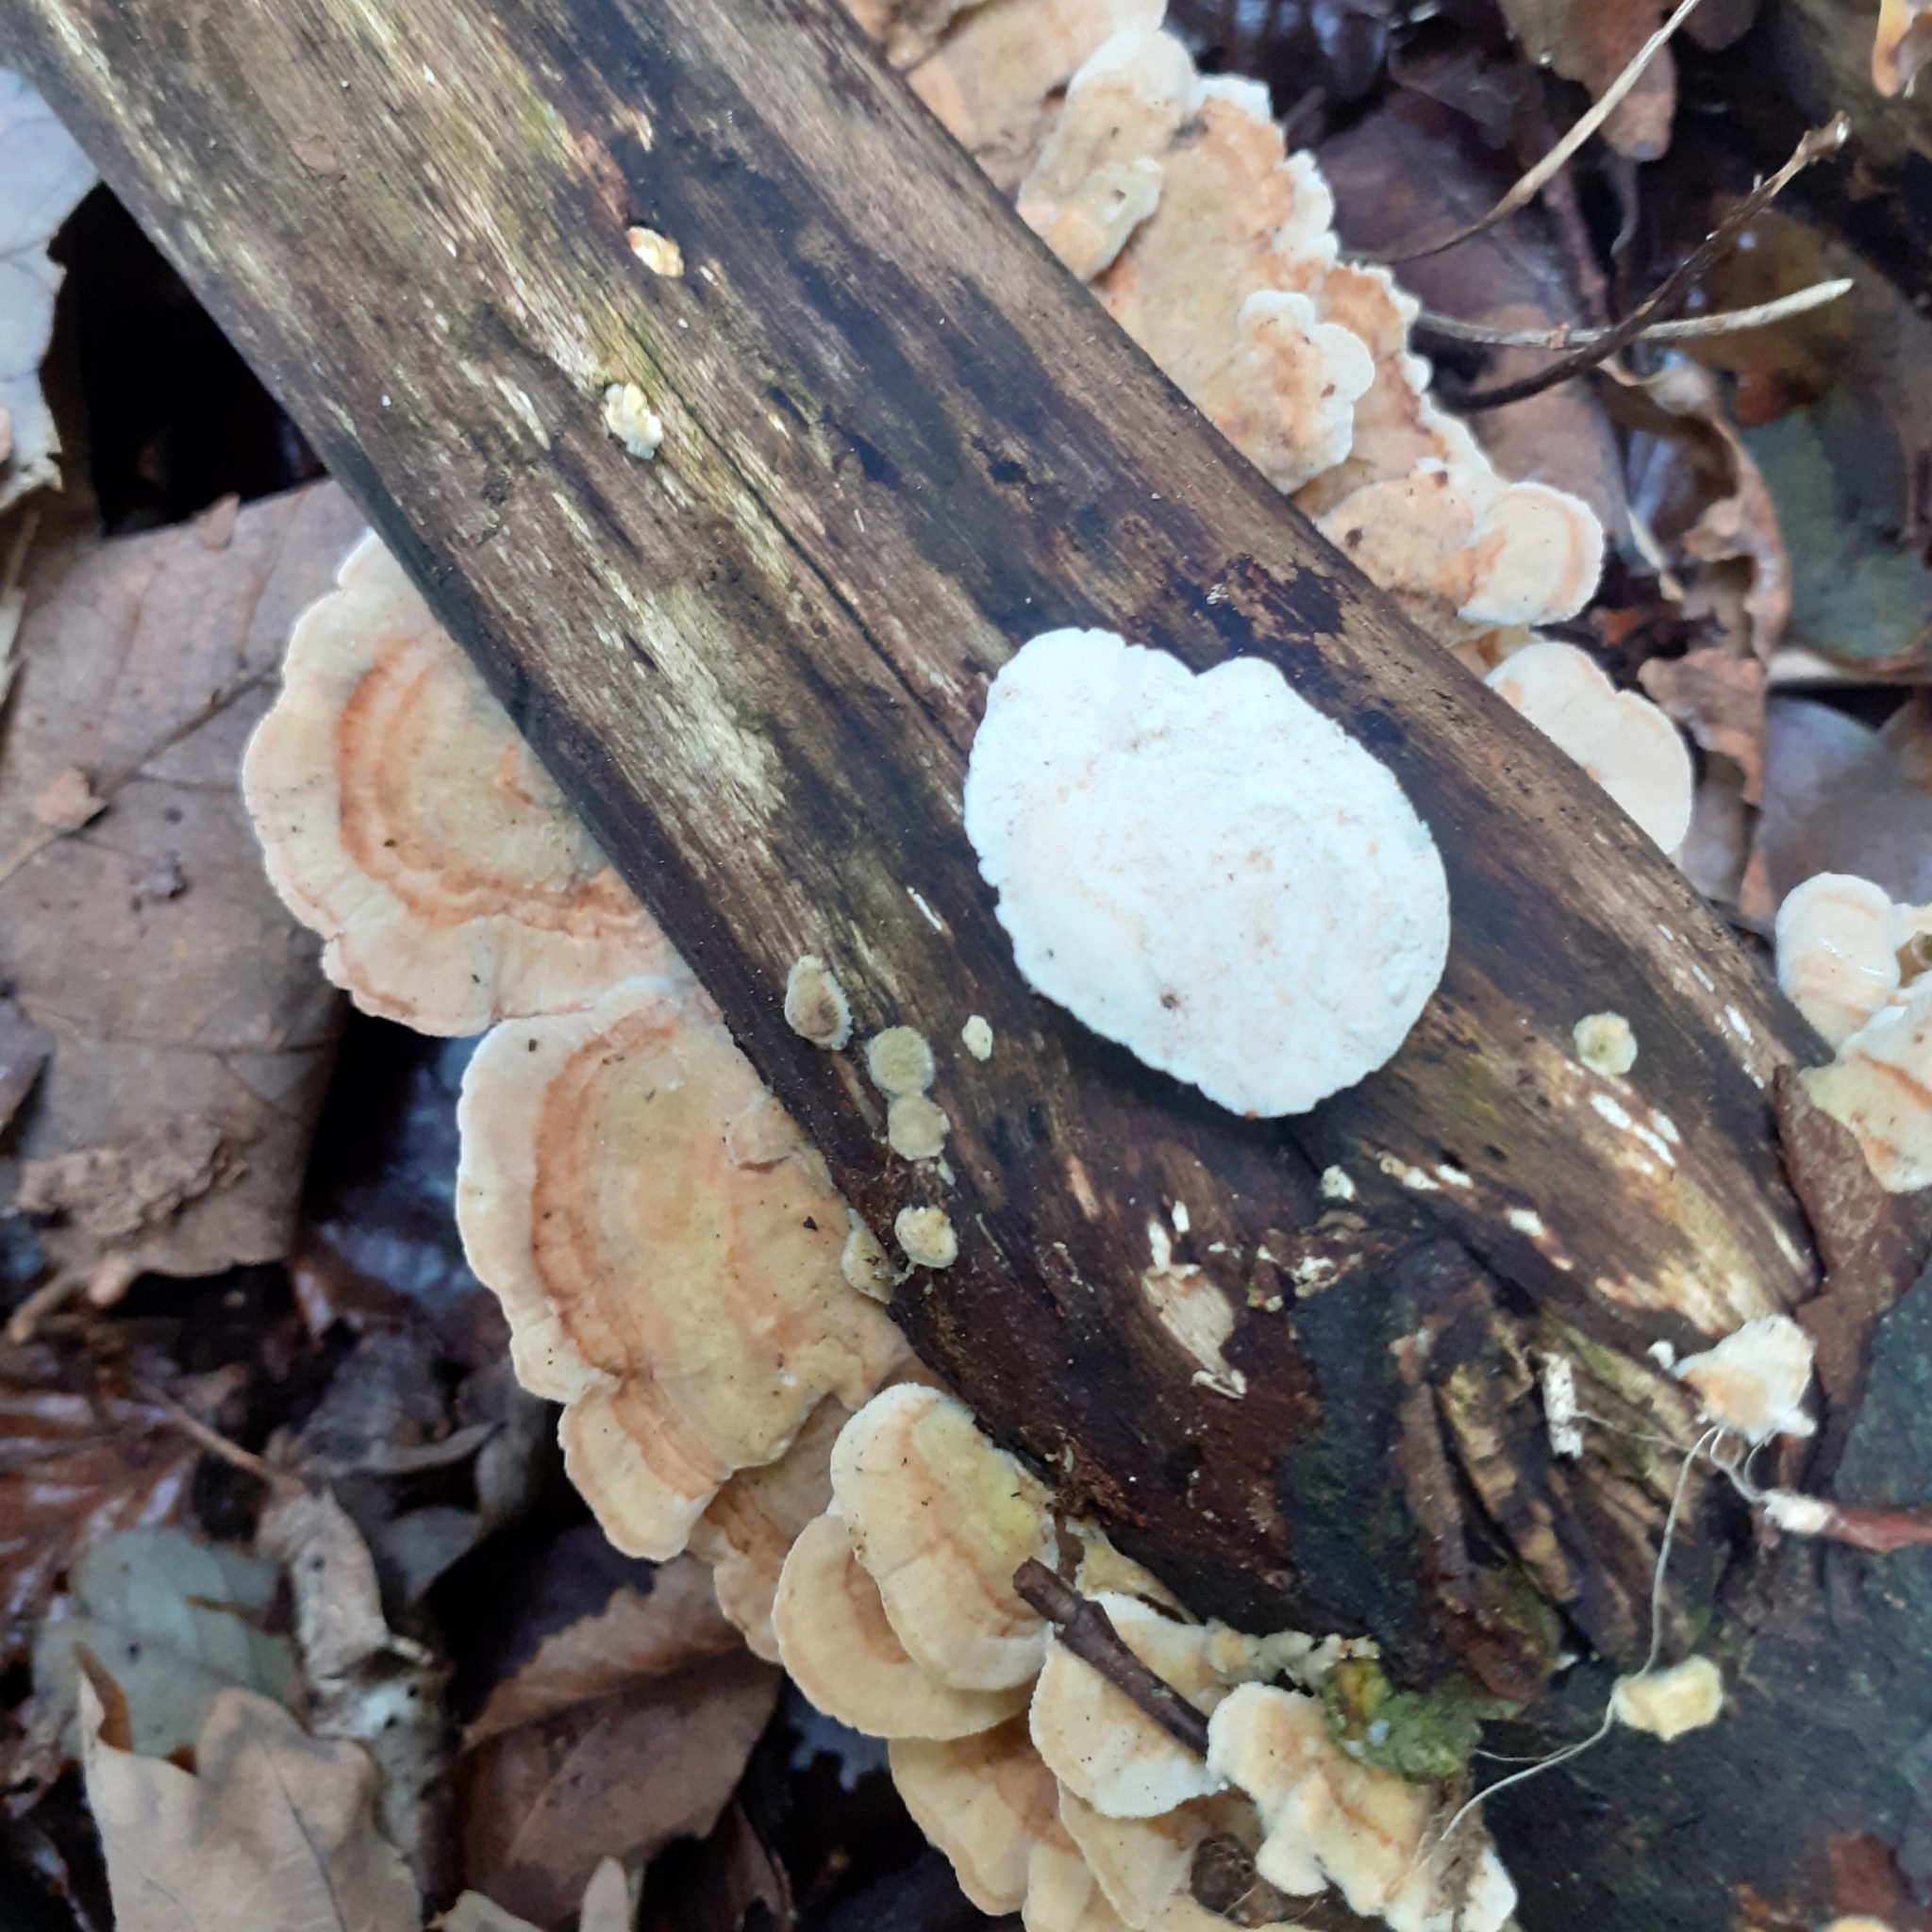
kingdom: Fungi
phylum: Basidiomycota
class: Agaricomycetes
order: Polyporales
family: Polyporaceae
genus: Trametes
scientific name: Trametes ochracea
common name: Ochre bracket
